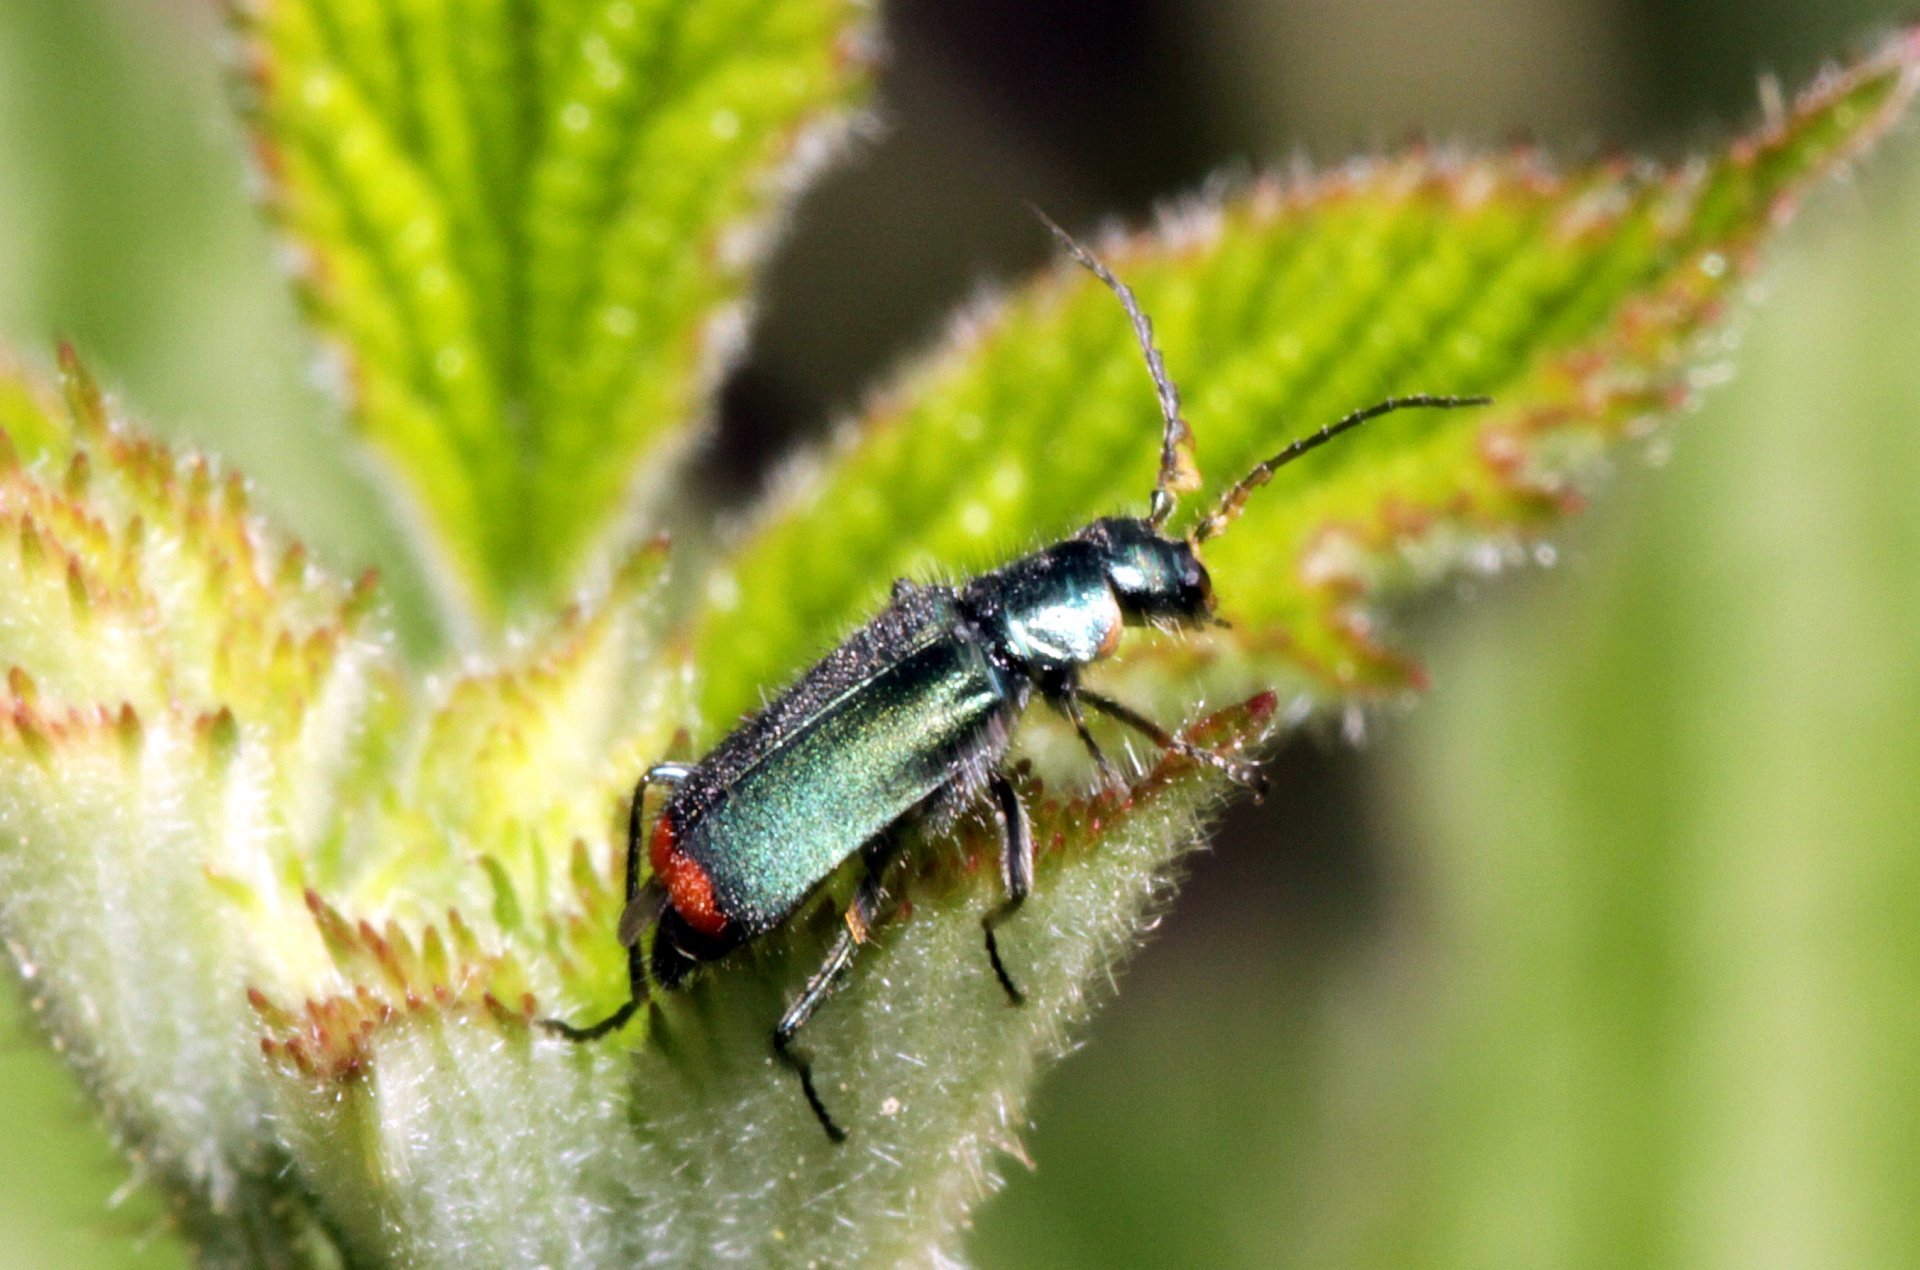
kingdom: Animalia
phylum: Arthropoda
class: Insecta
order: Coleoptera
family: Melyridae
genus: Malachius
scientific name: Malachius bipustulatus
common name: Malachite beetle
